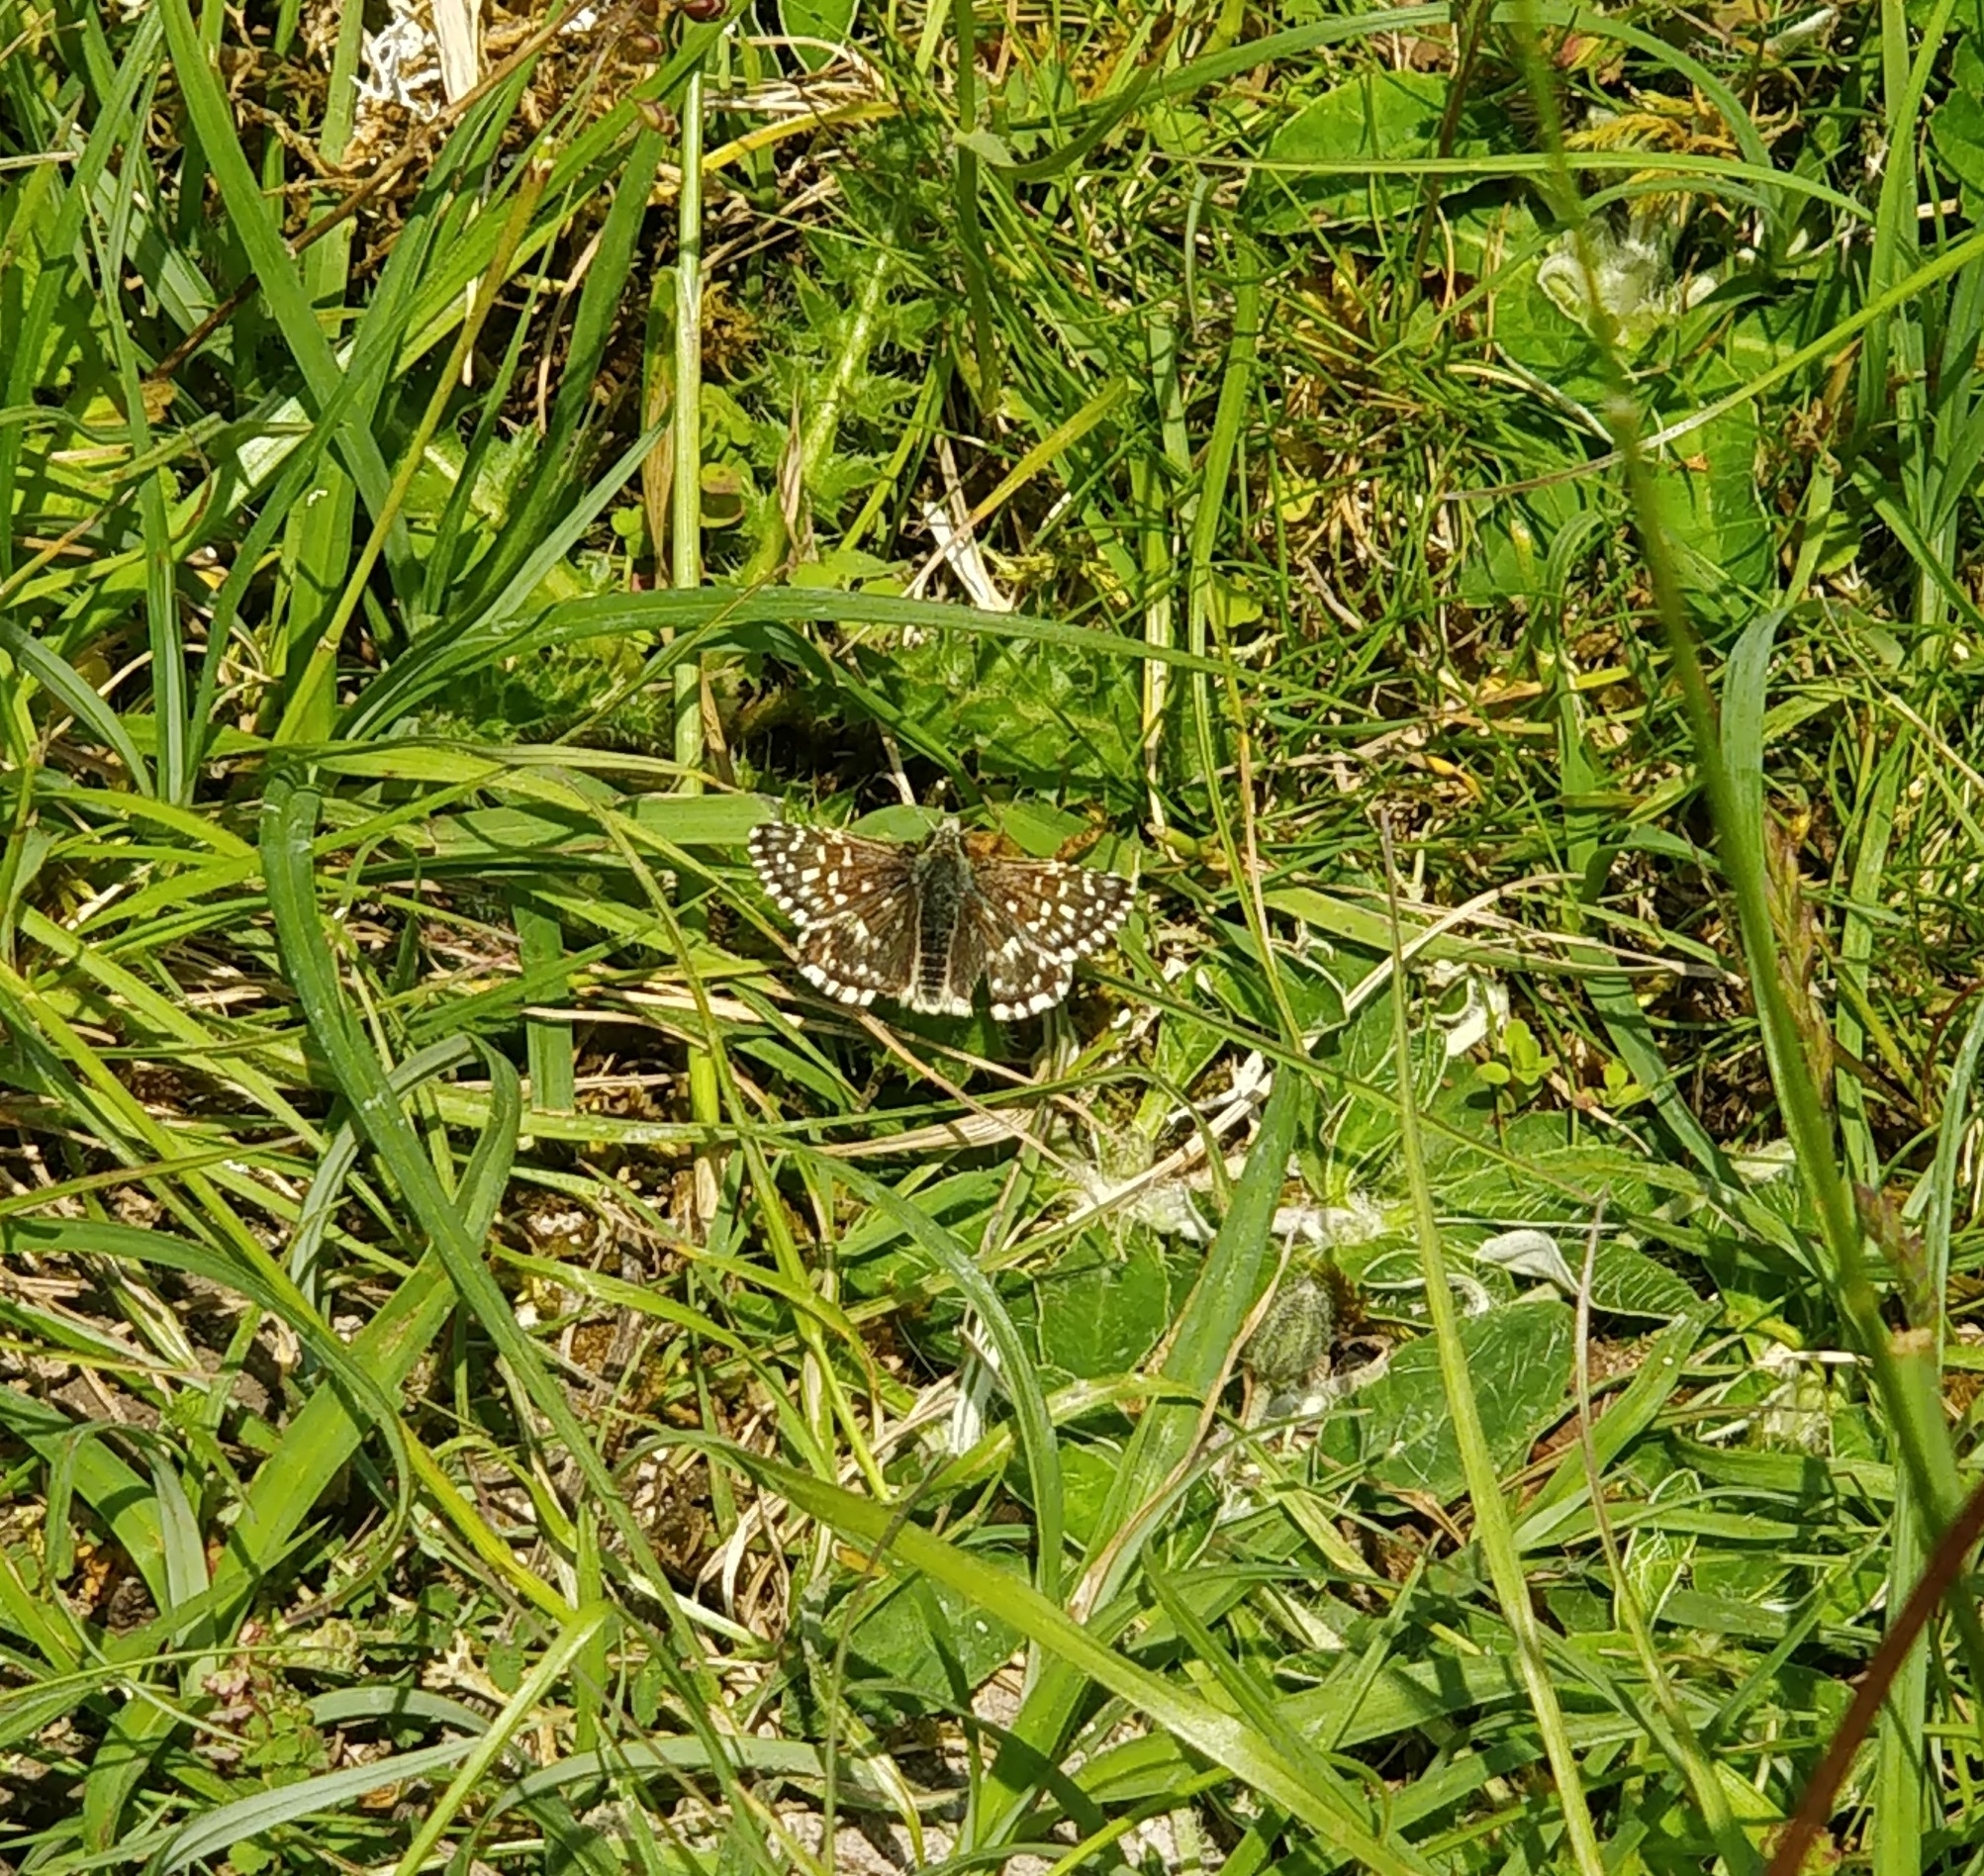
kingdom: Animalia
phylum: Arthropoda
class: Insecta
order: Lepidoptera
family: Hesperiidae
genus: Pyrgus
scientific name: Pyrgus malvae
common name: Grizzled skipper
